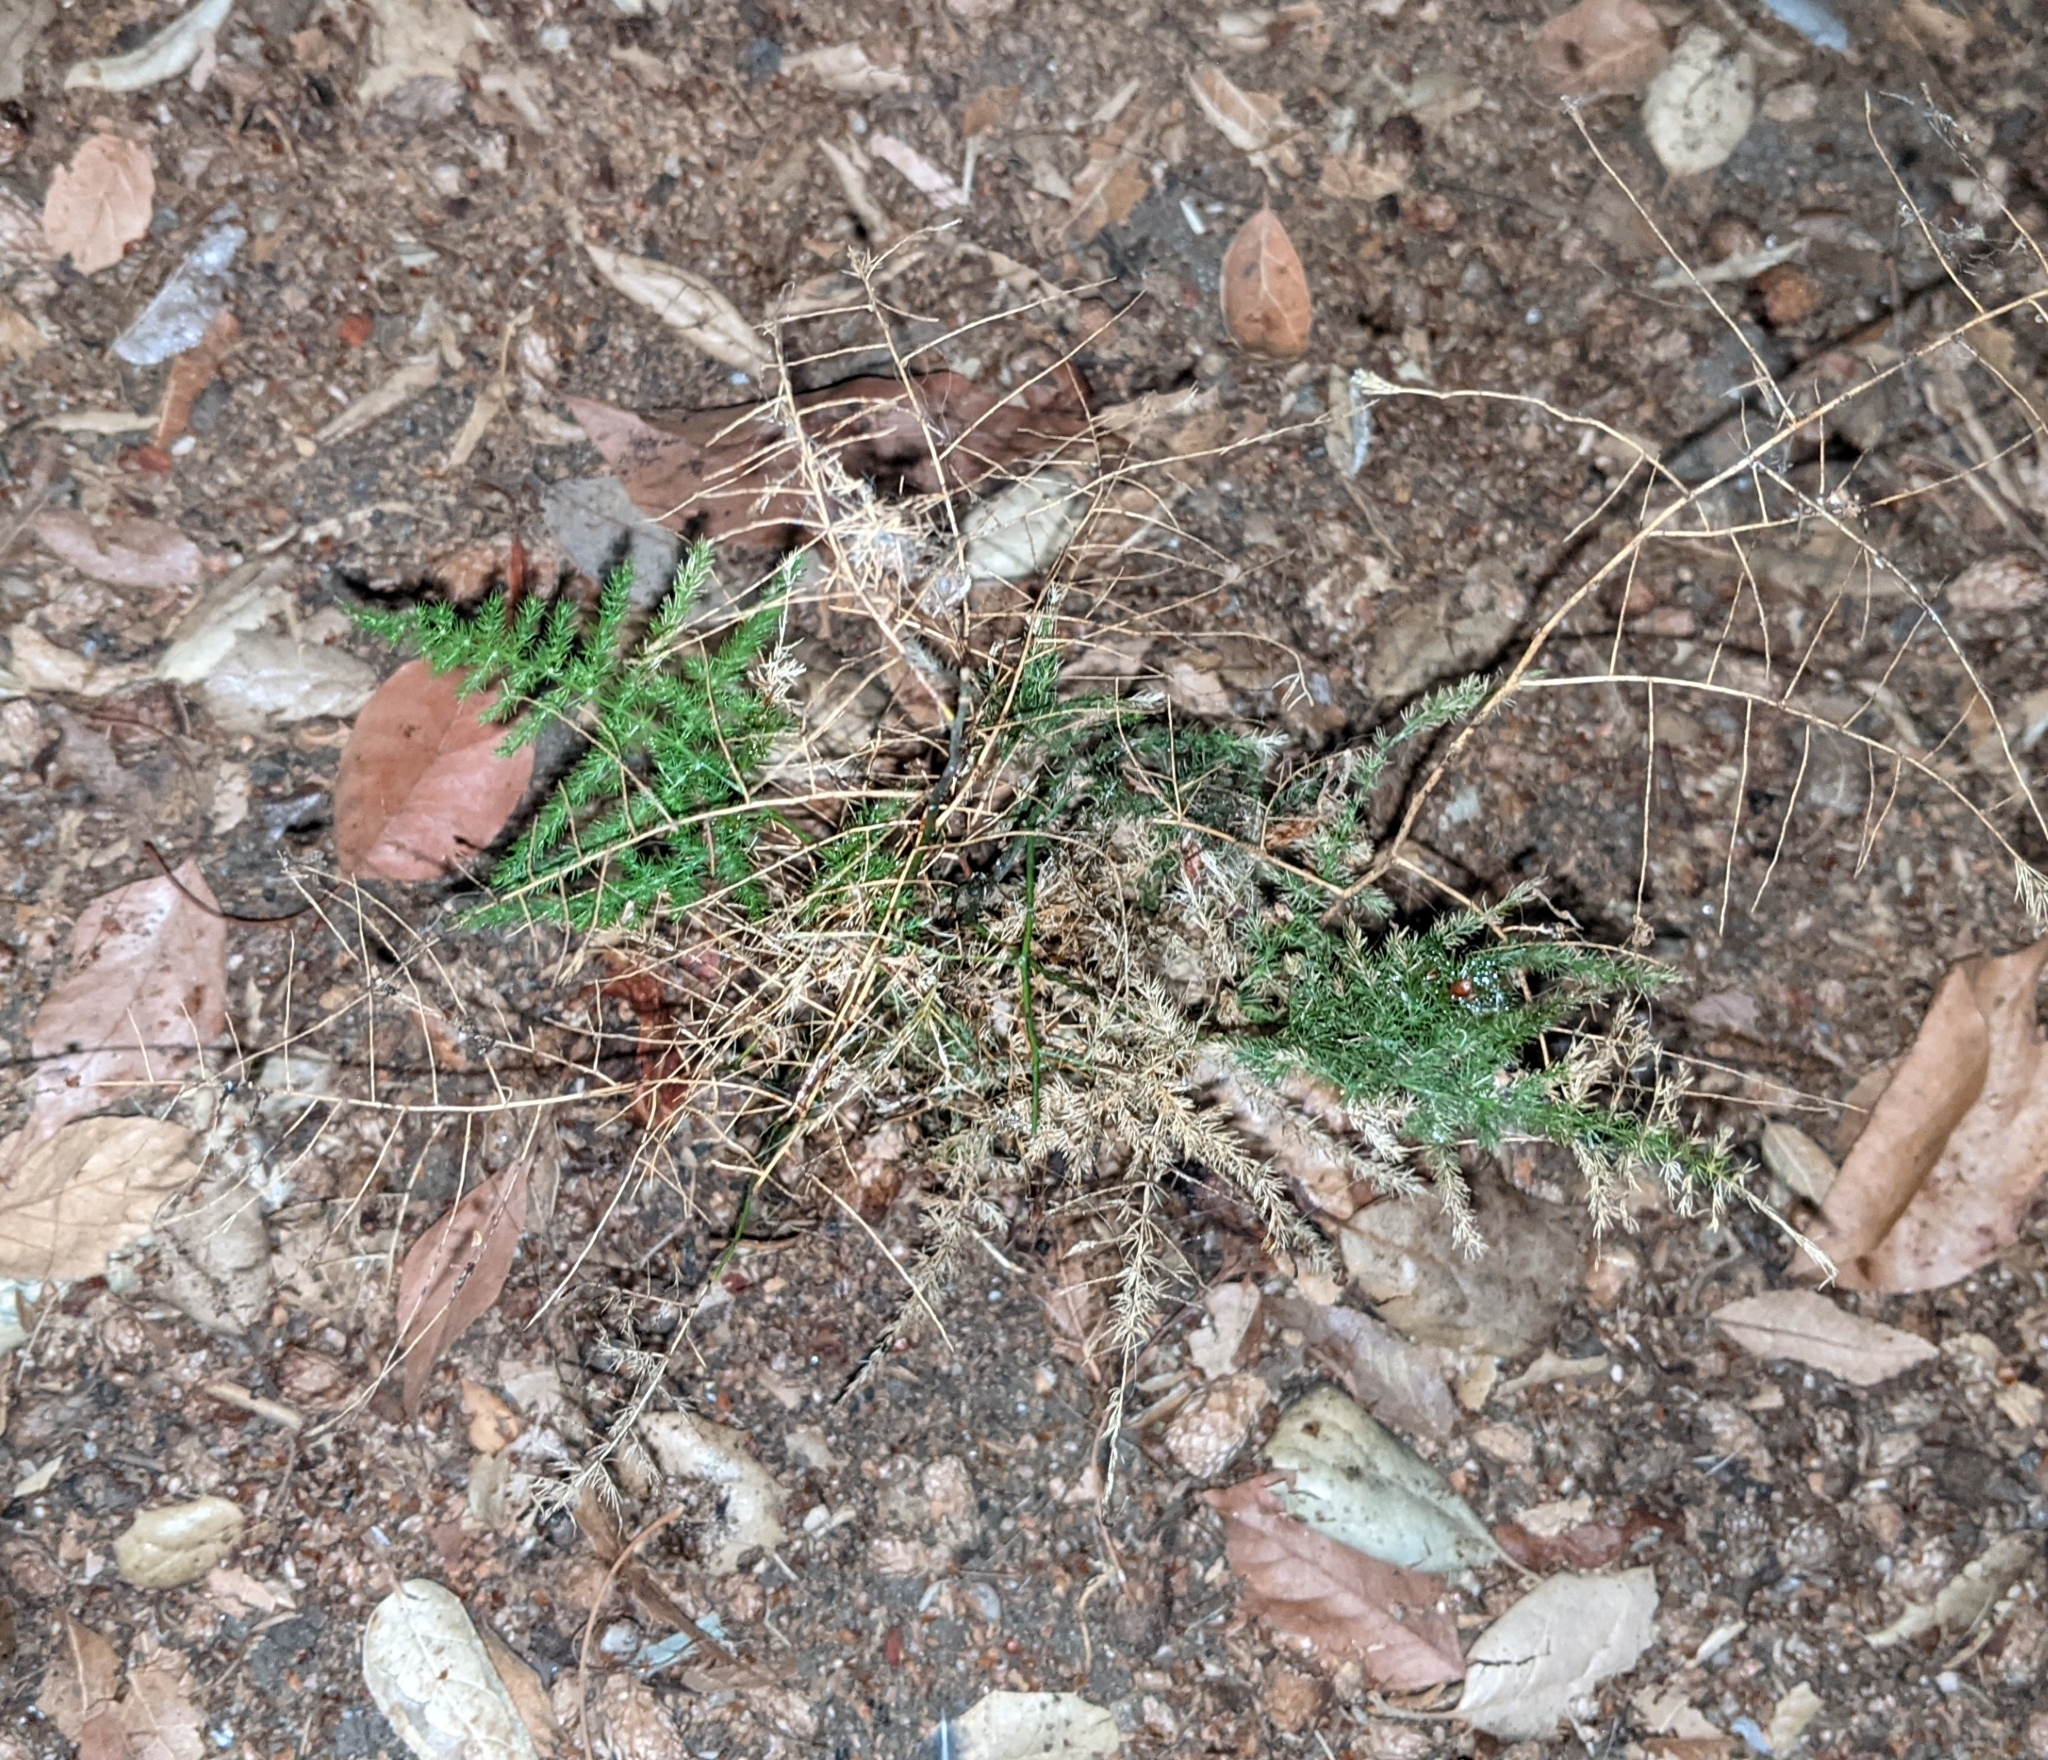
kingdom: Plantae
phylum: Tracheophyta
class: Liliopsida
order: Asparagales
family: Asparagaceae
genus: Asparagus
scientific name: Asparagus setaceus
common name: Common asparagus fern
